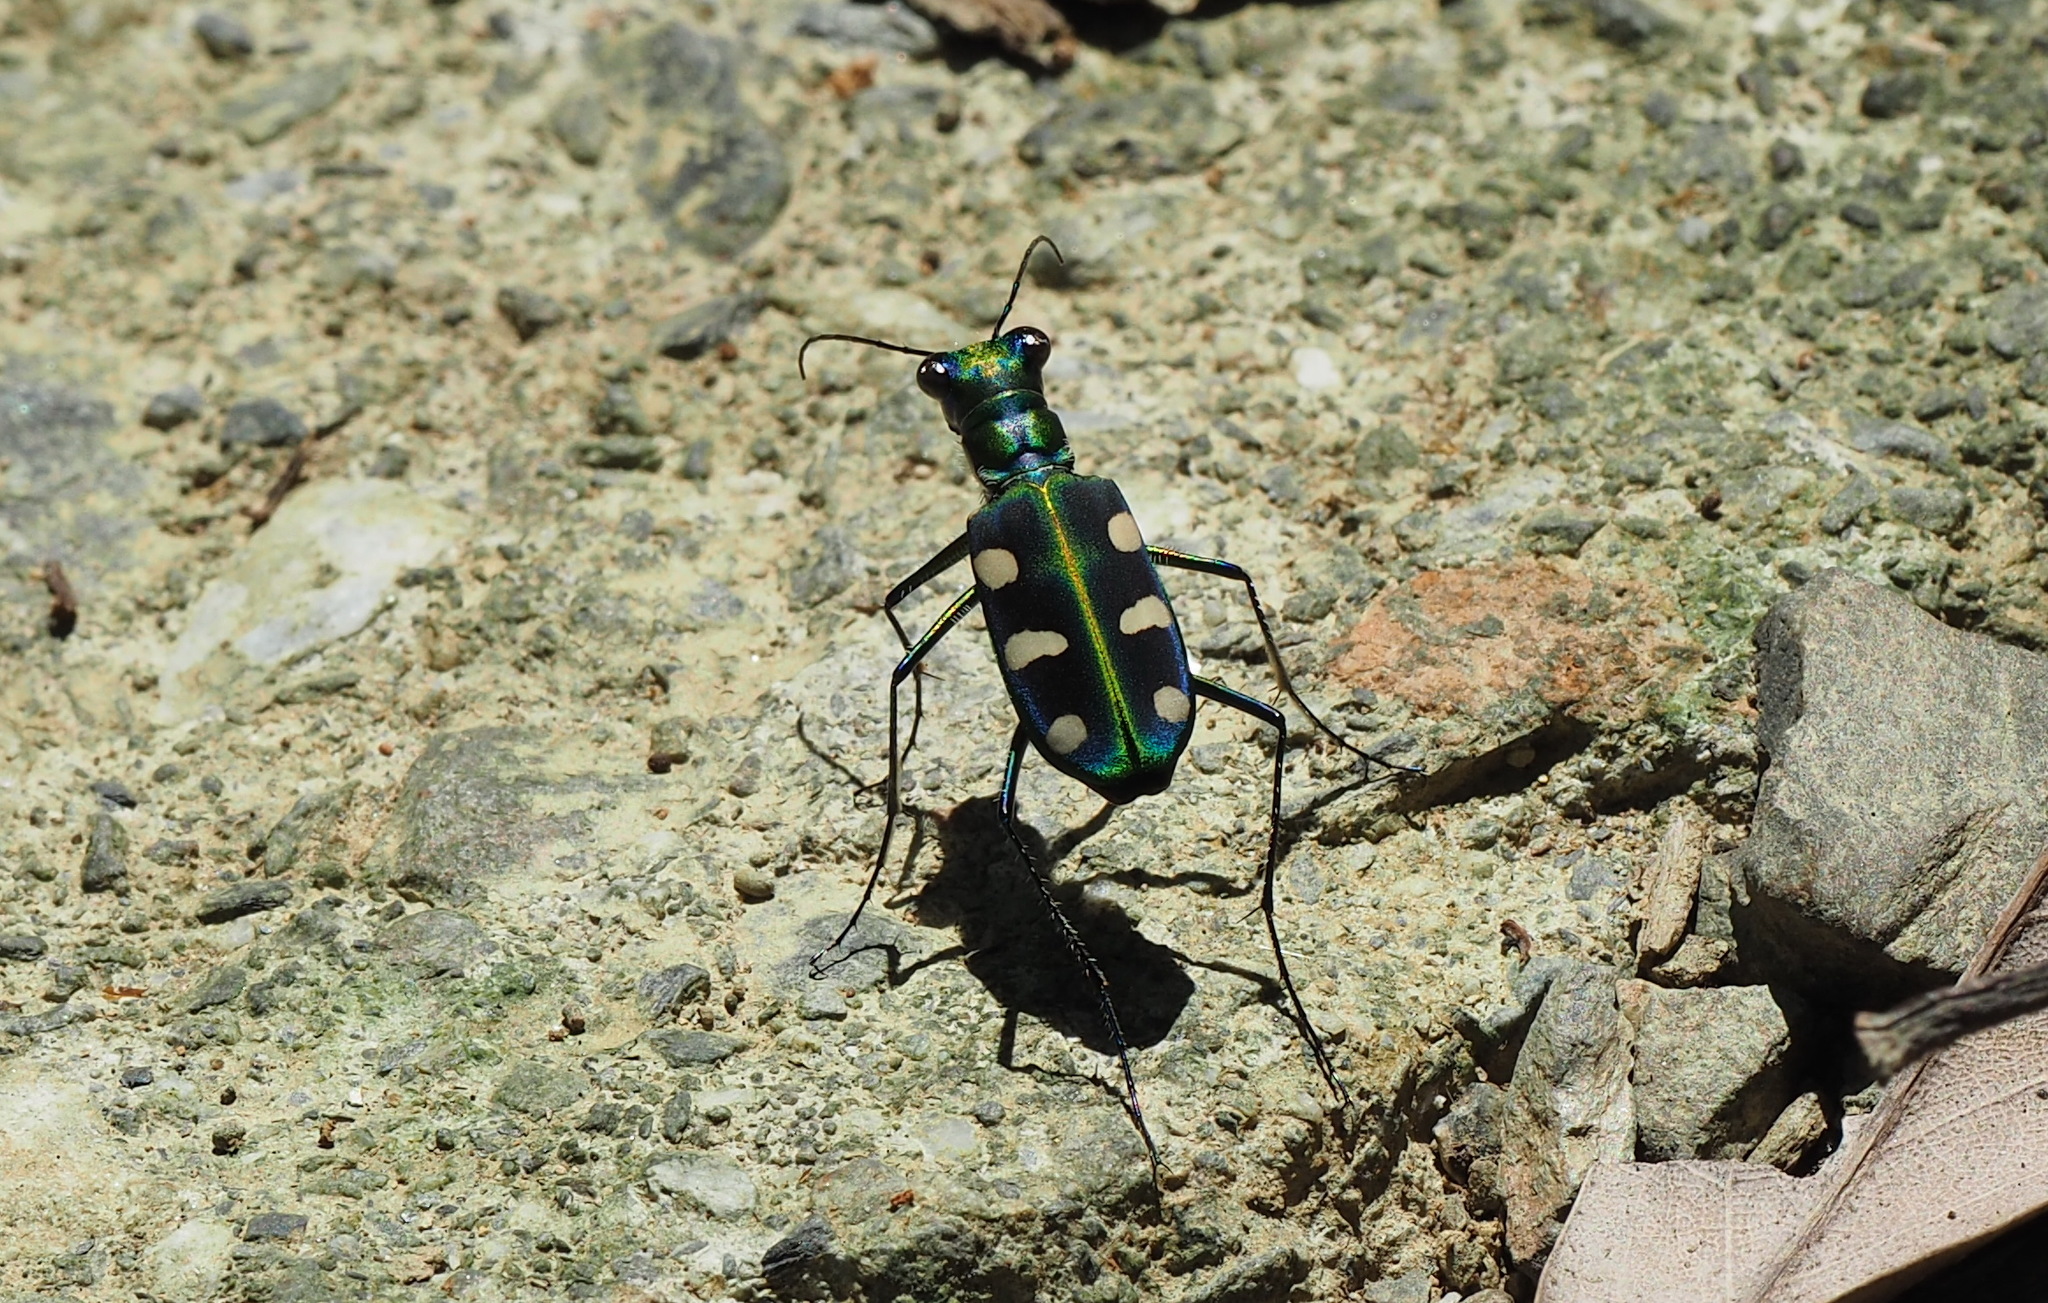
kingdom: Animalia
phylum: Arthropoda
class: Insecta
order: Coleoptera
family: Carabidae
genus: Cicindela
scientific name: Cicindela batesi
